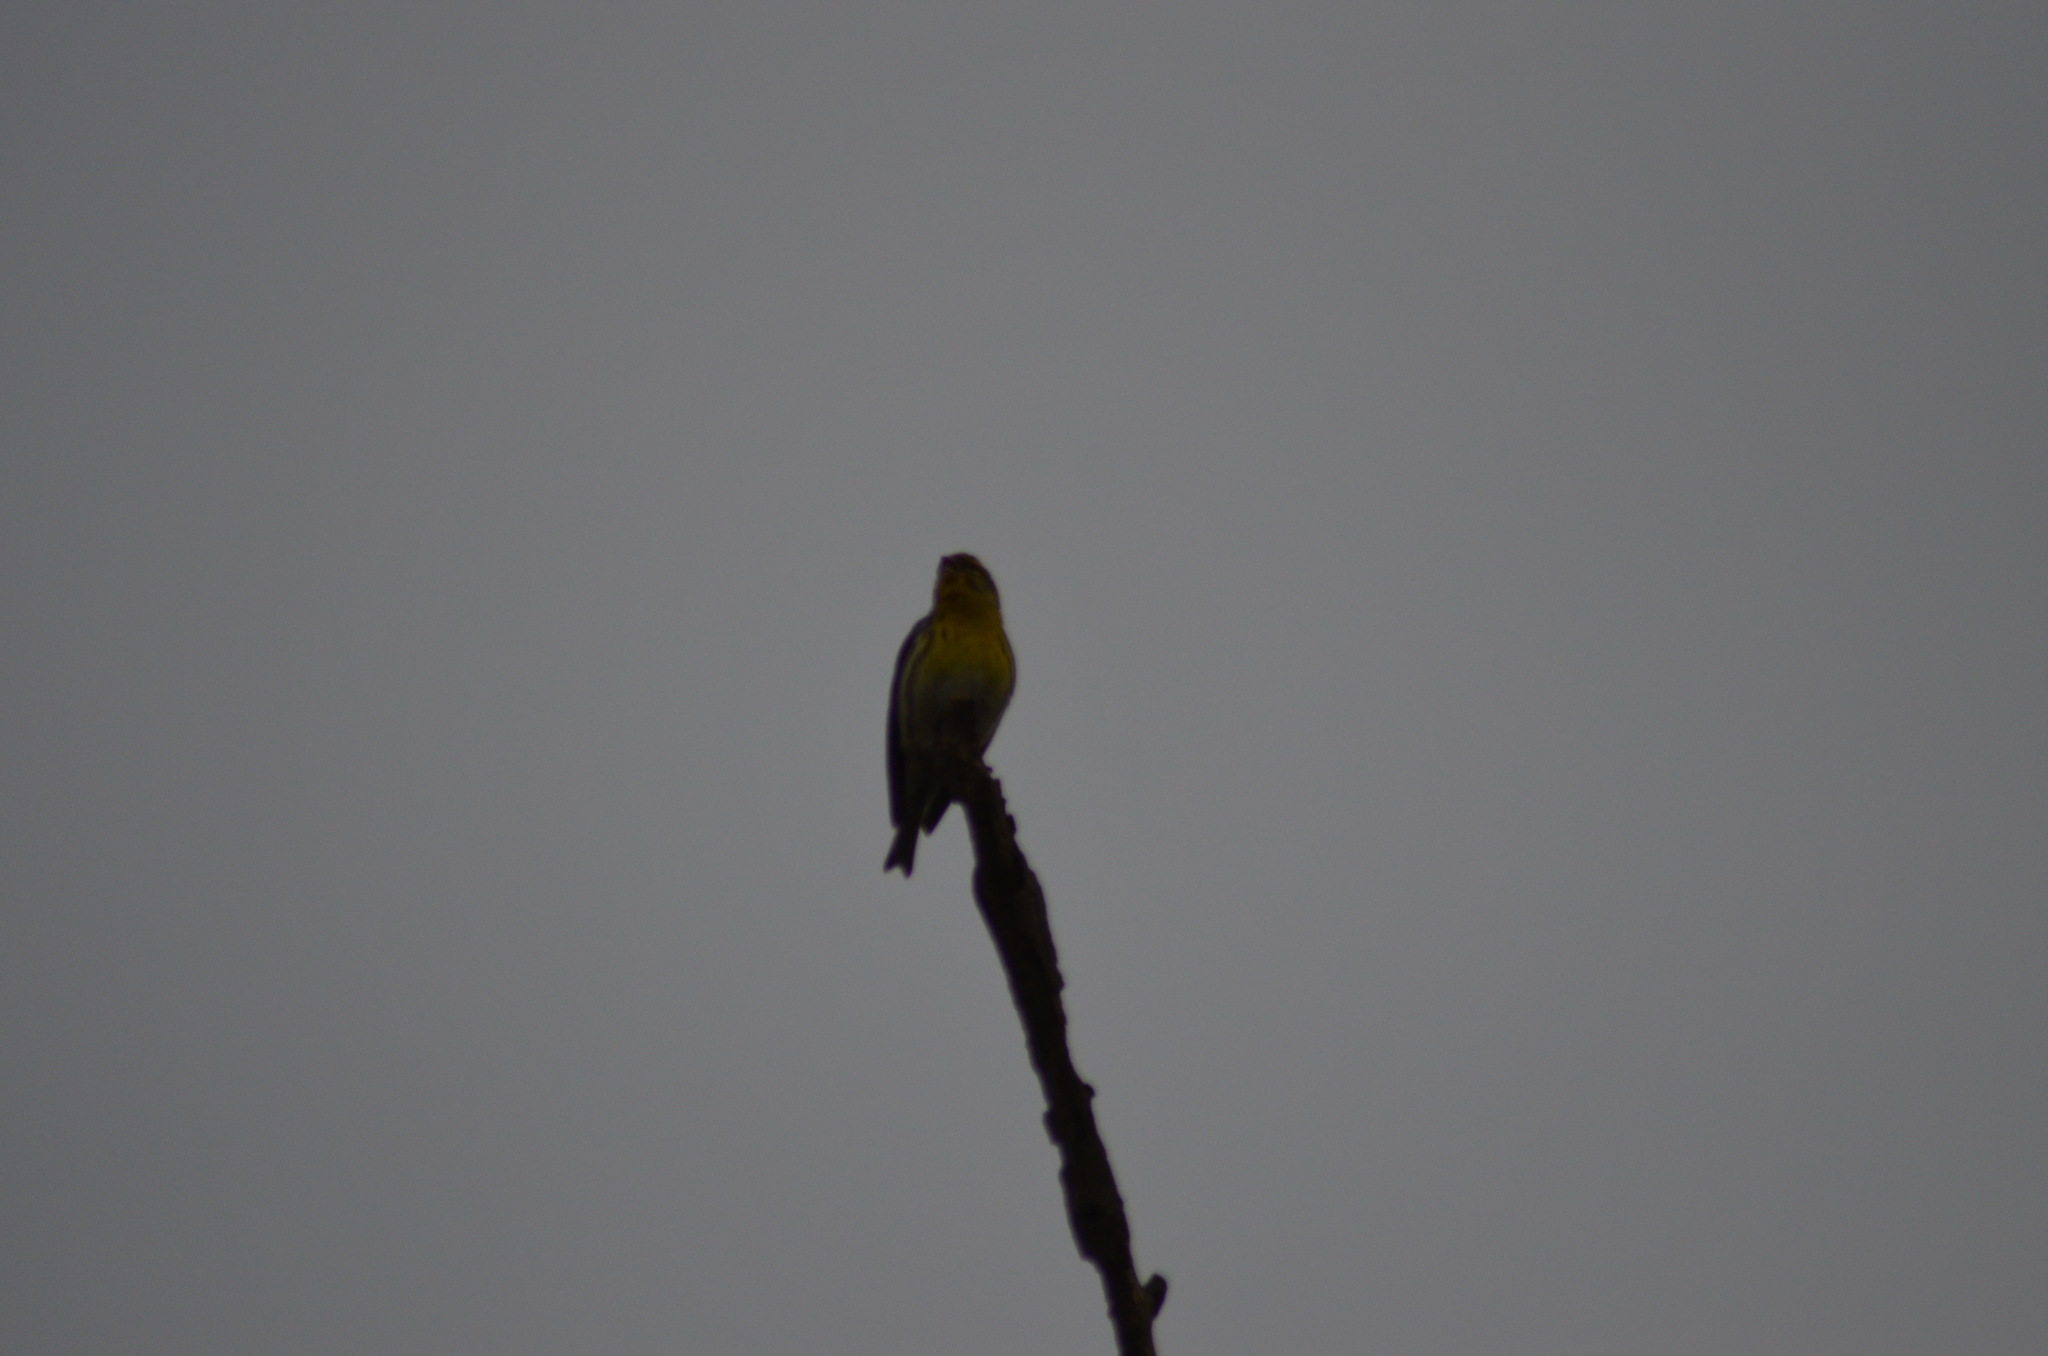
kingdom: Animalia
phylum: Chordata
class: Aves
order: Passeriformes
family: Fringillidae
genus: Serinus
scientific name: Serinus serinus
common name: European serin
